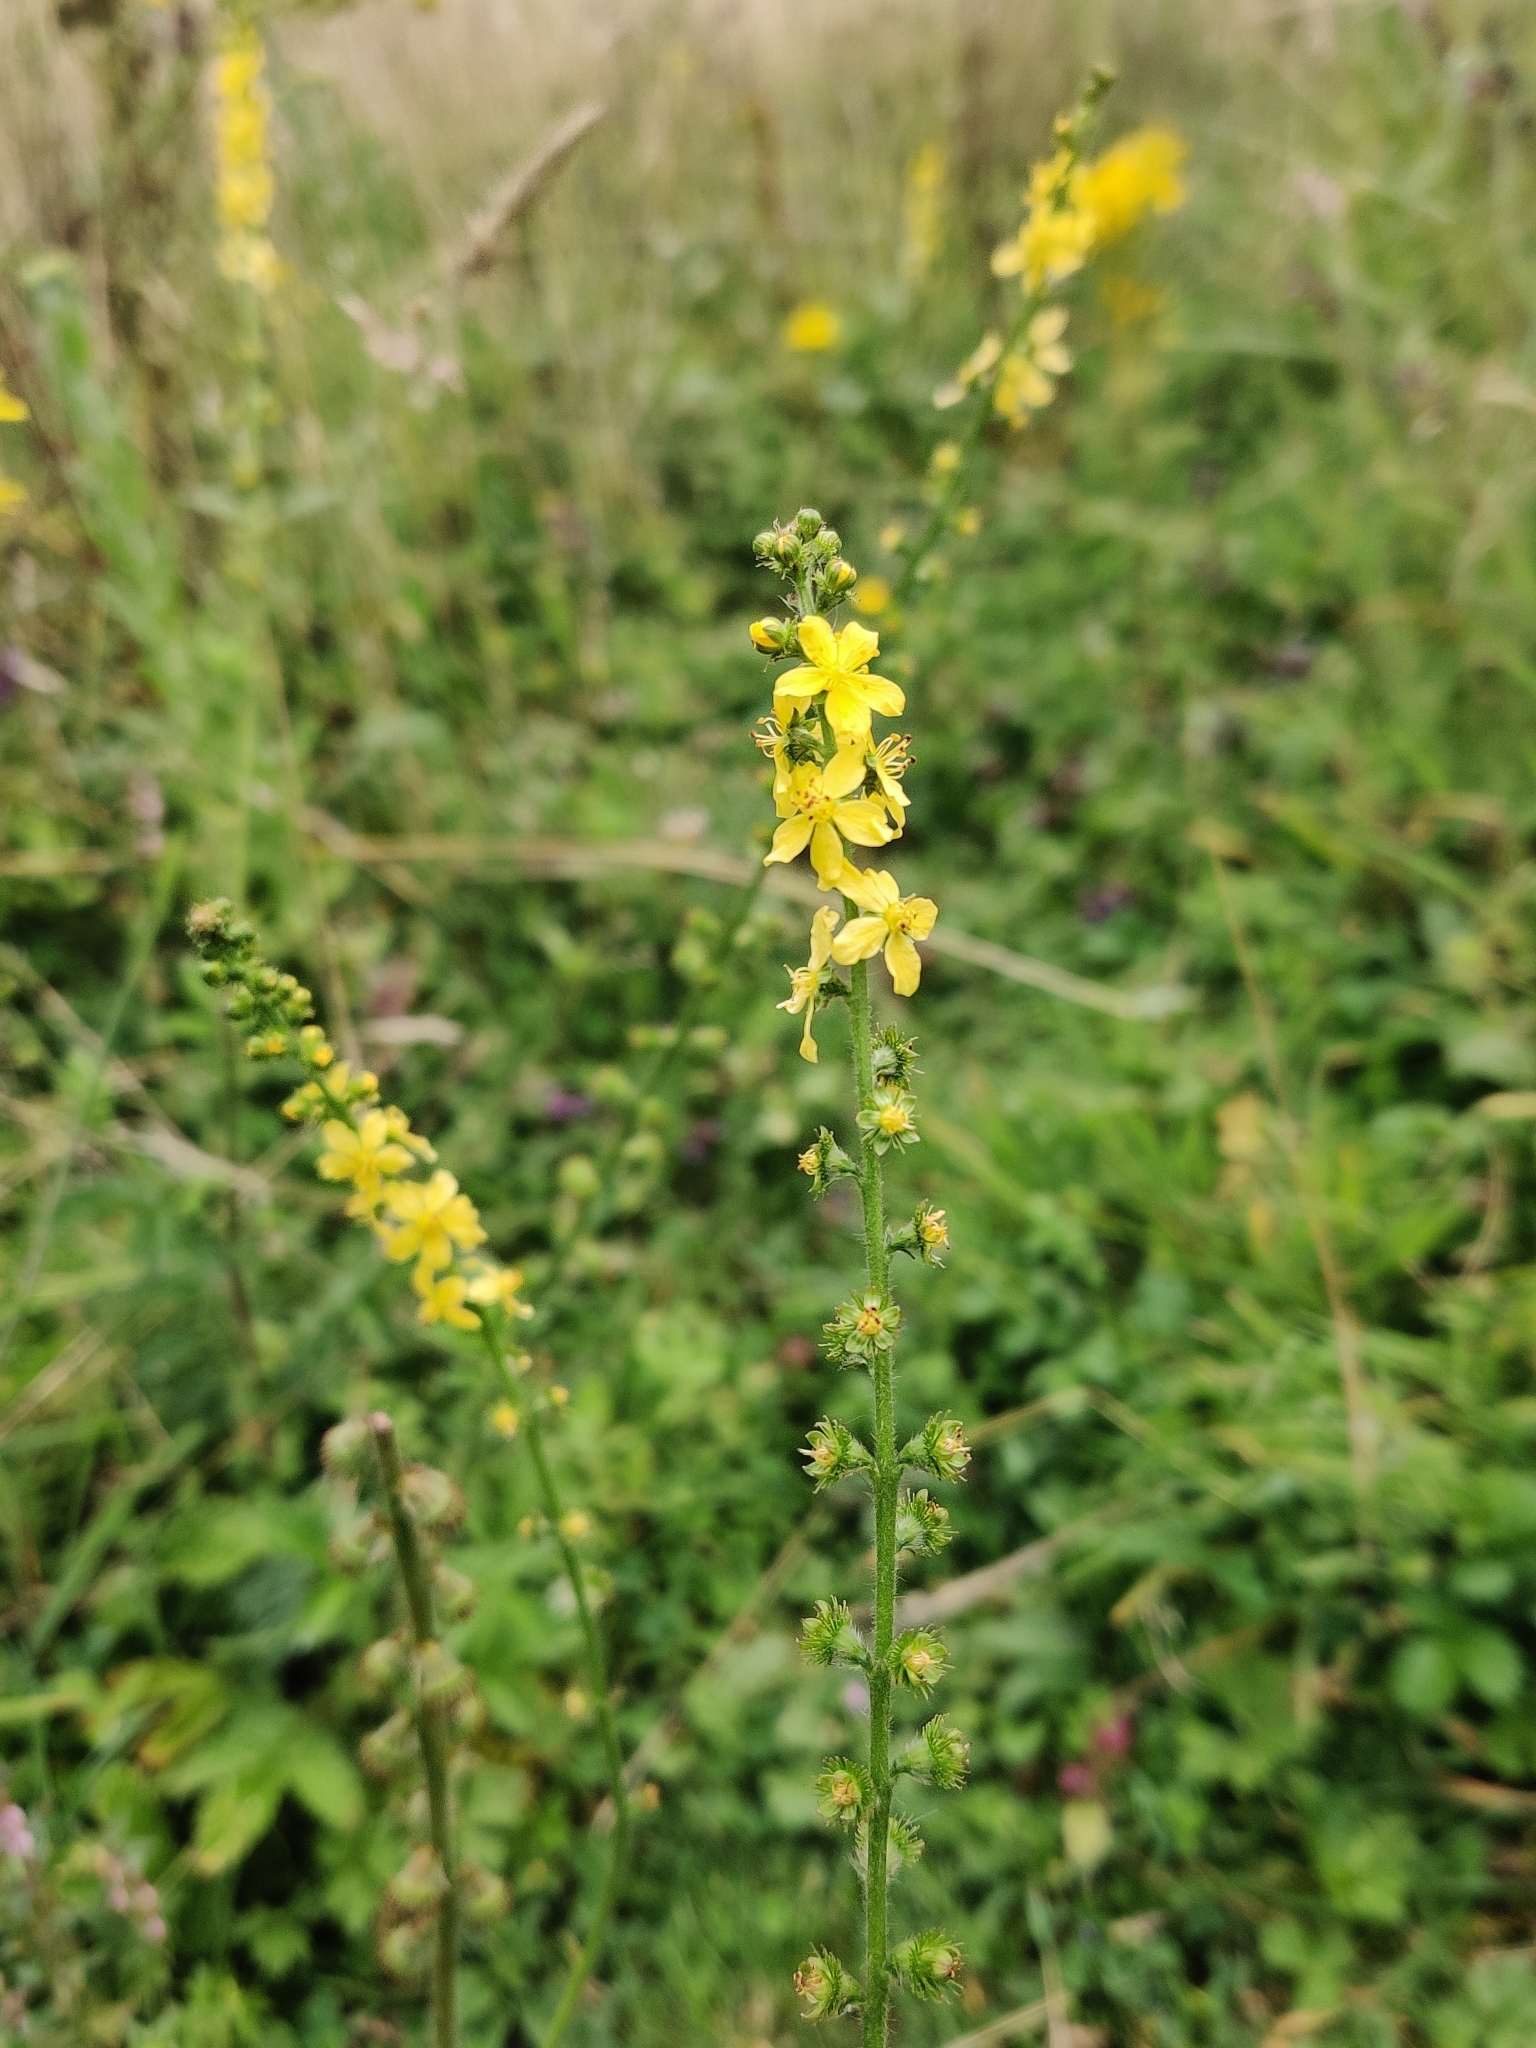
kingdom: Plantae
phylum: Tracheophyta
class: Magnoliopsida
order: Rosales
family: Rosaceae
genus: Agrimonia
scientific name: Agrimonia eupatoria
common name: Agrimony
